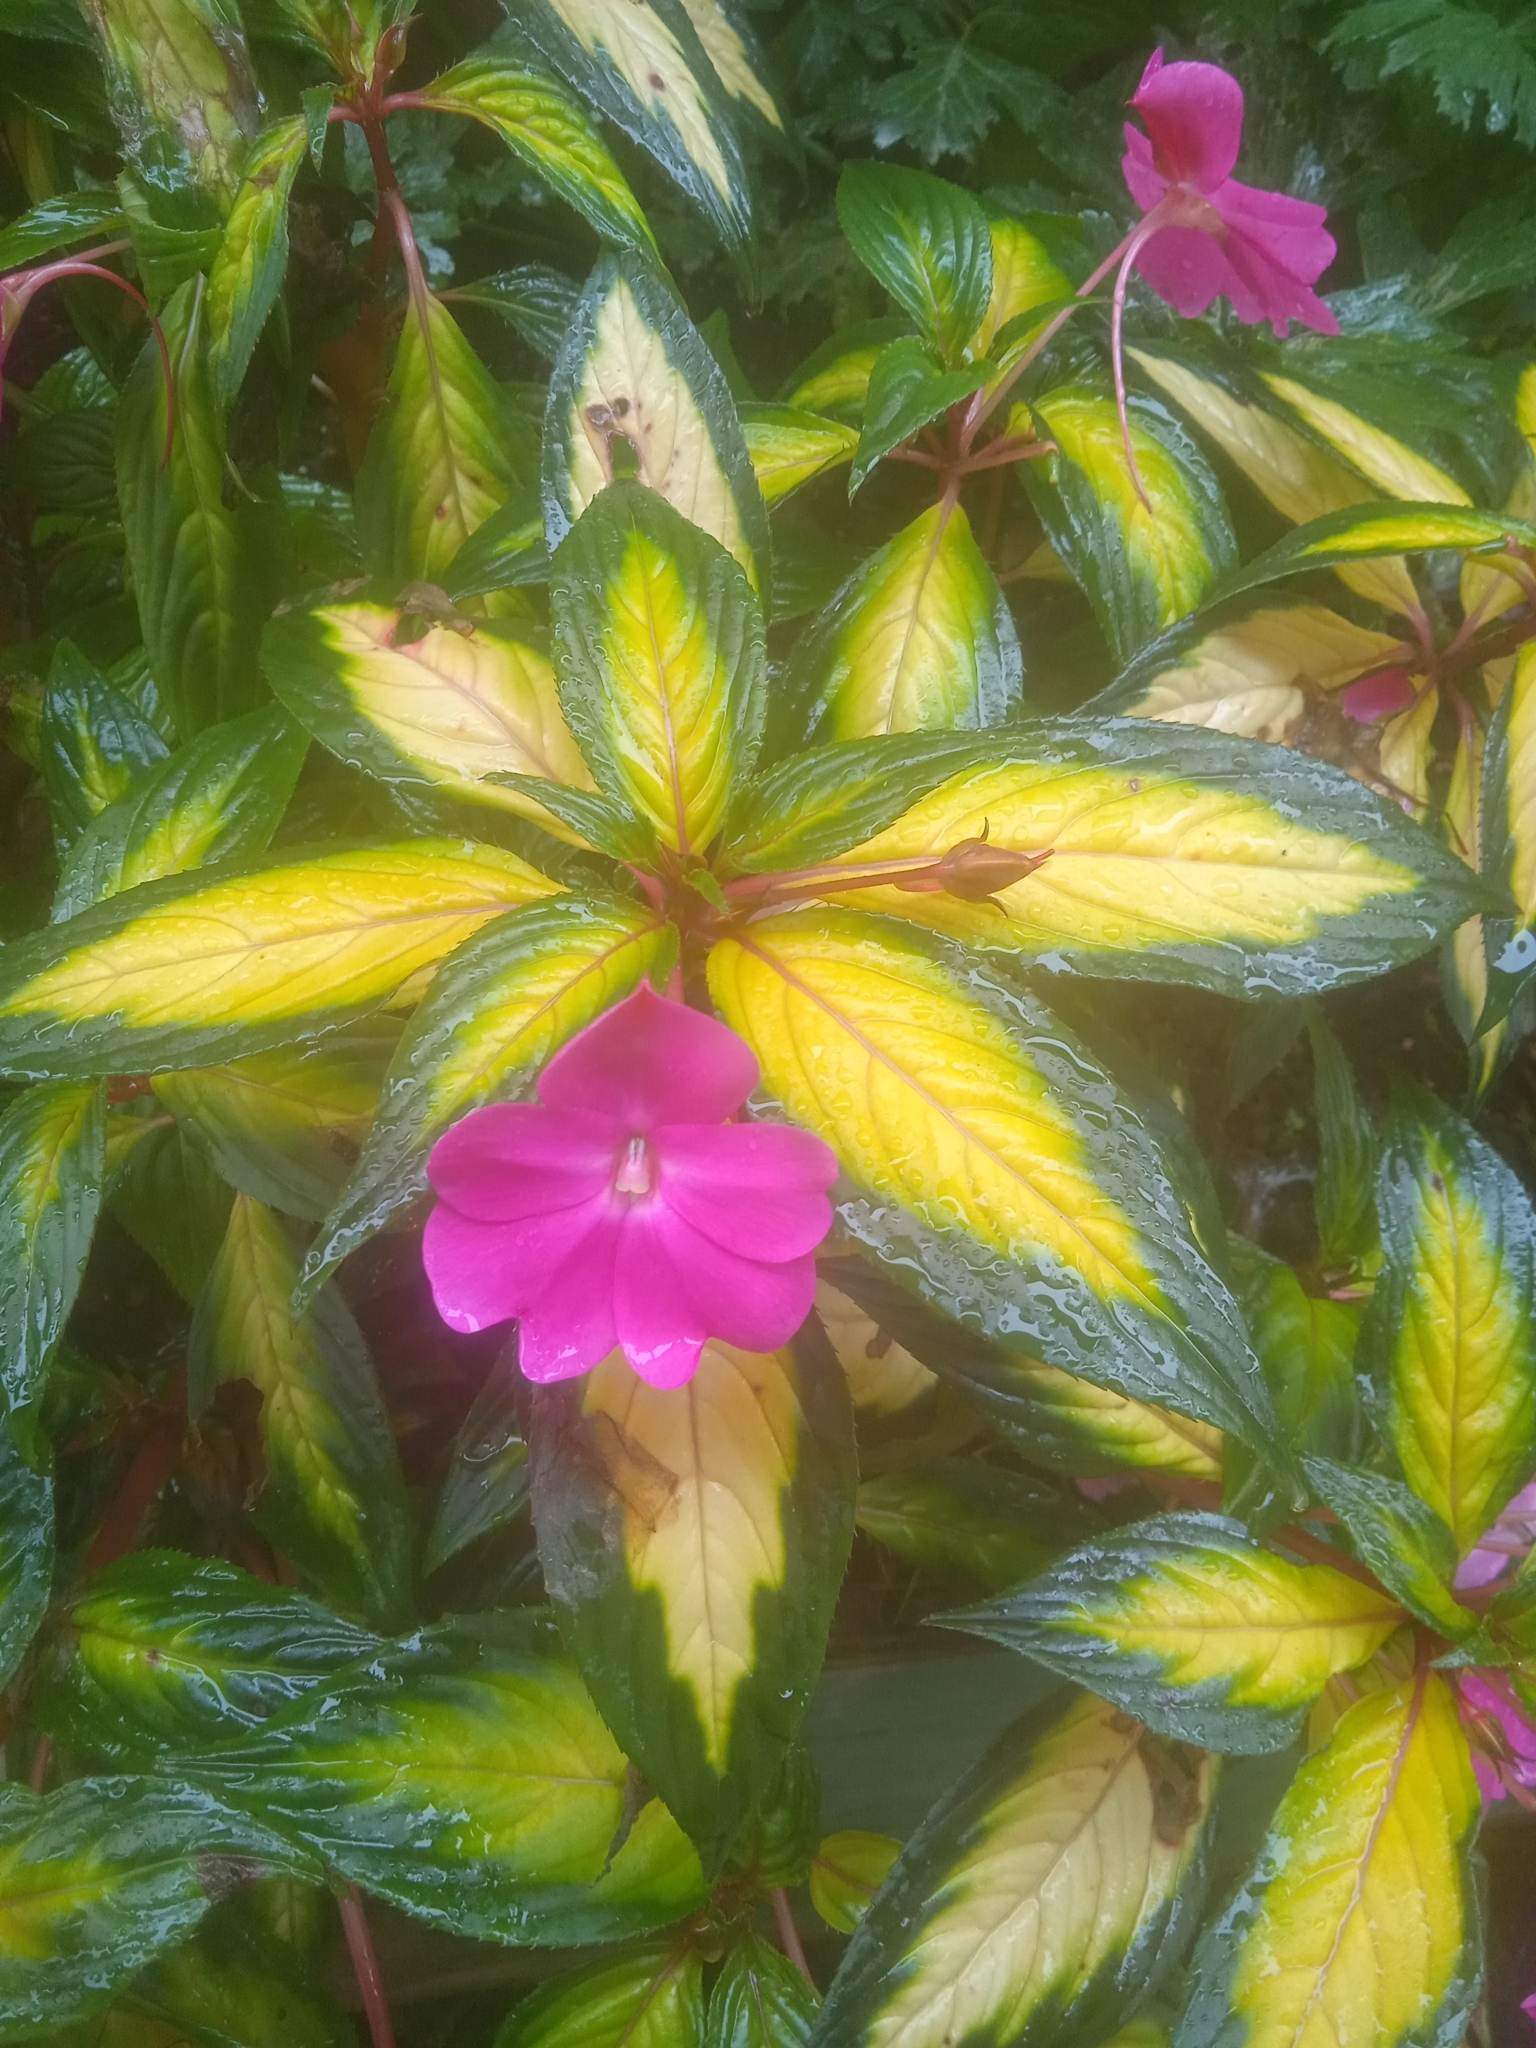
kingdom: Plantae
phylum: Tracheophyta
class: Magnoliopsida
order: Ericales
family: Balsaminaceae
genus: Impatiens
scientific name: Impatiens hawkeri
